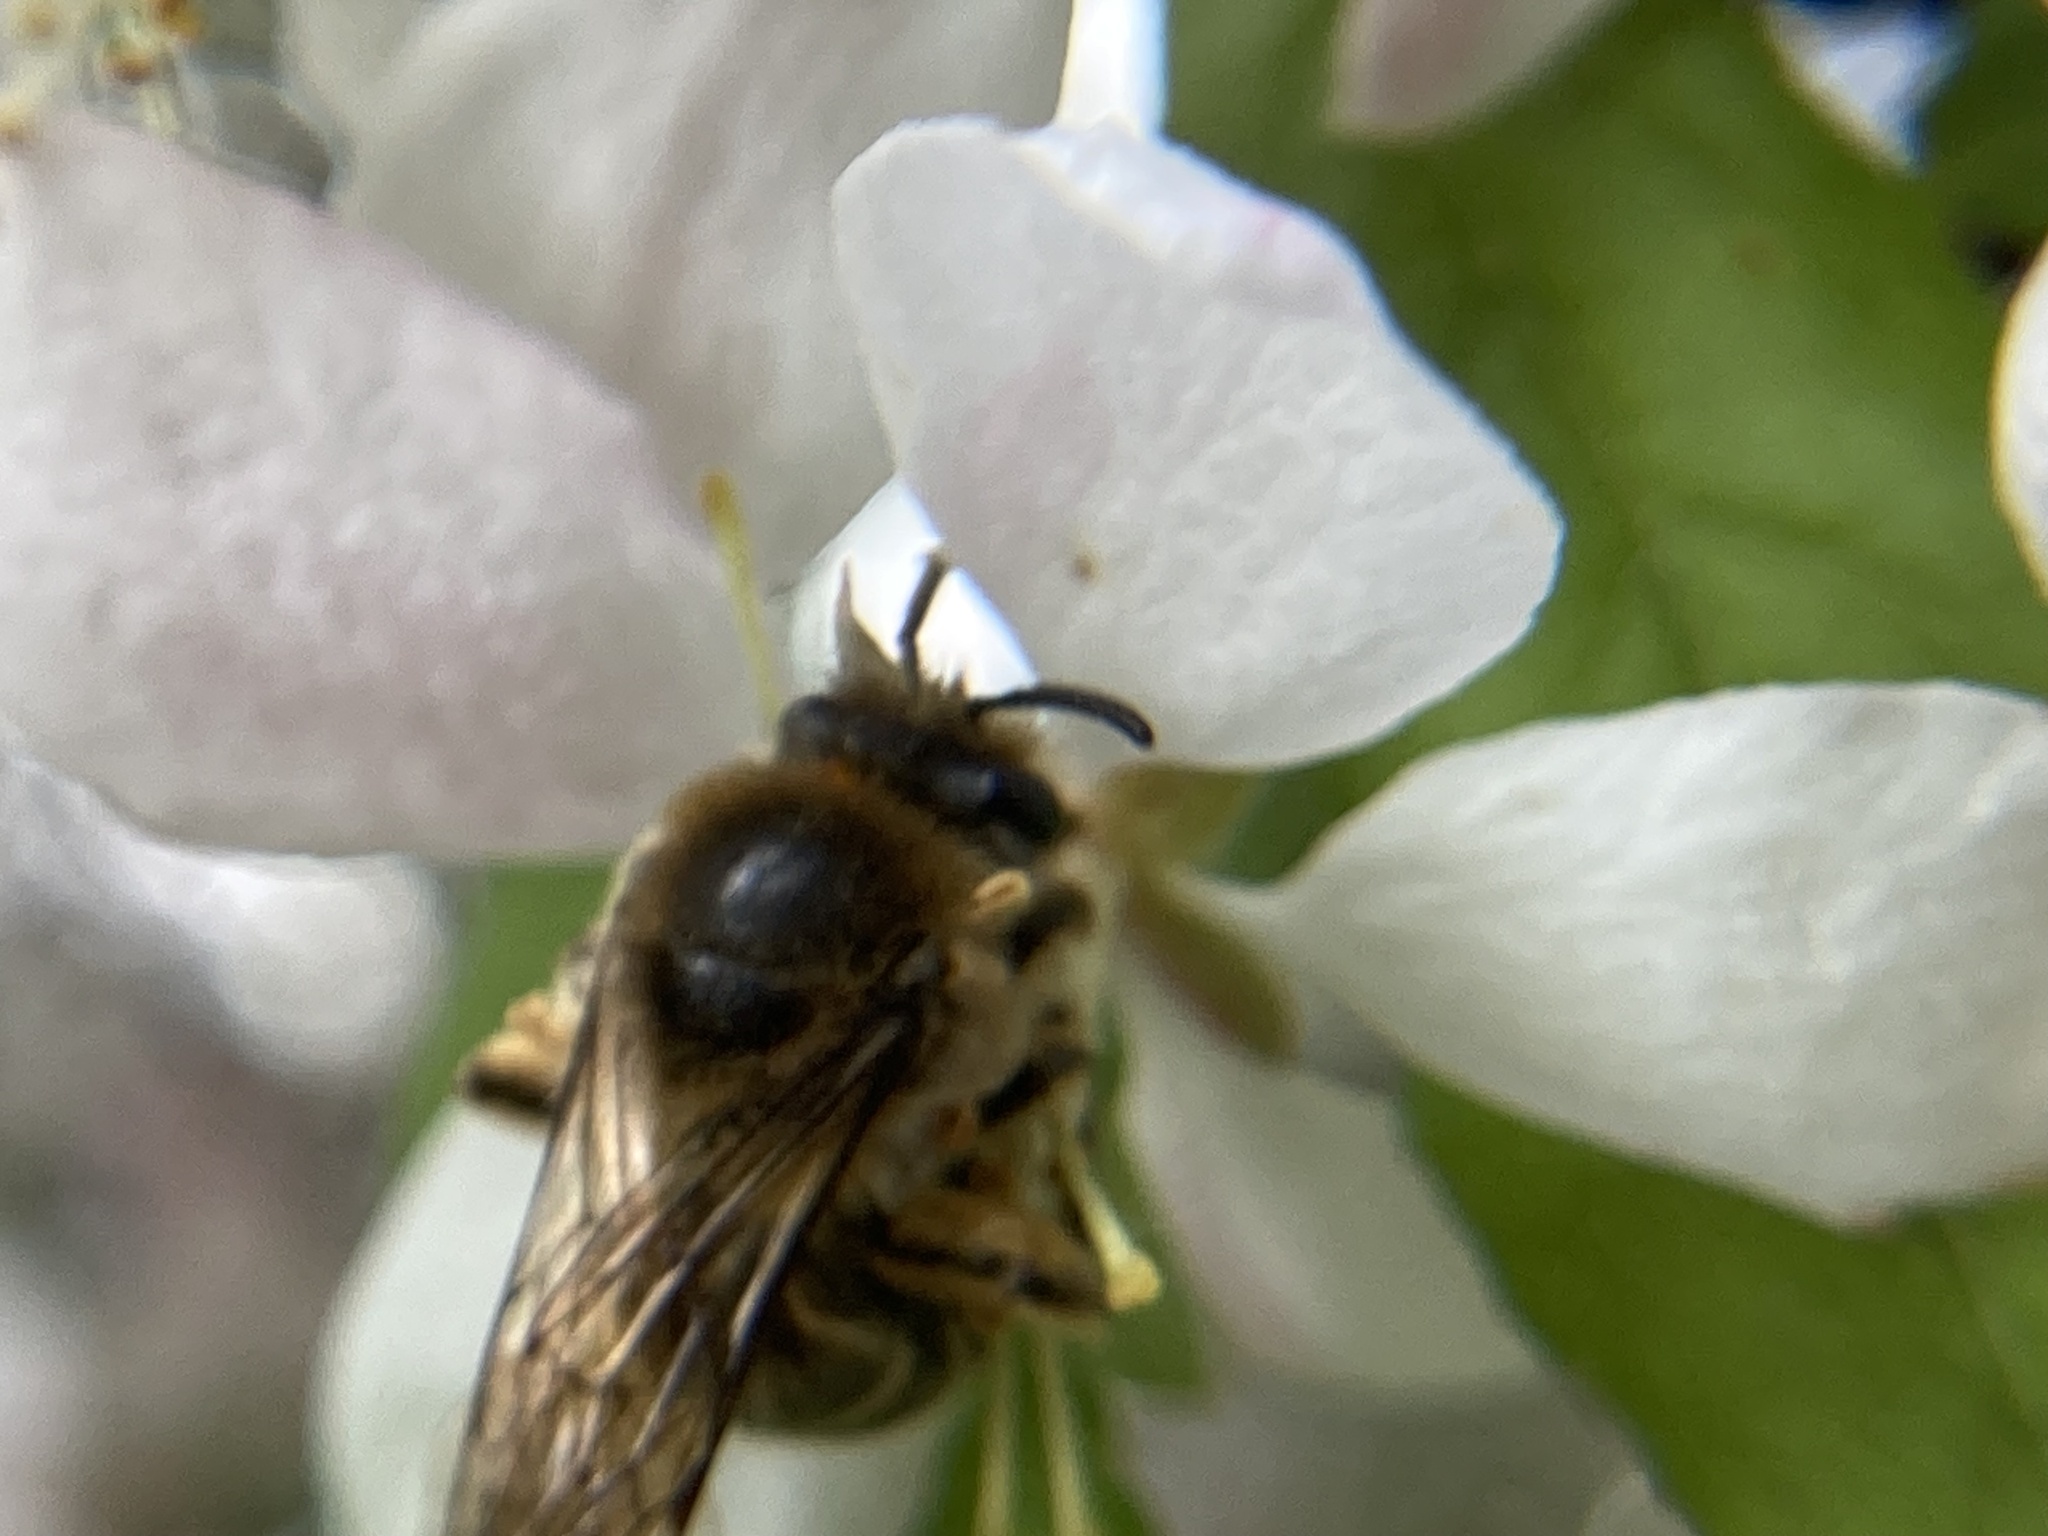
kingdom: Animalia
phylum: Arthropoda
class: Insecta
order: Hymenoptera
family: Colletidae
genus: Colletes
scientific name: Colletes inaequalis
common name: Unequal cellophane bee
